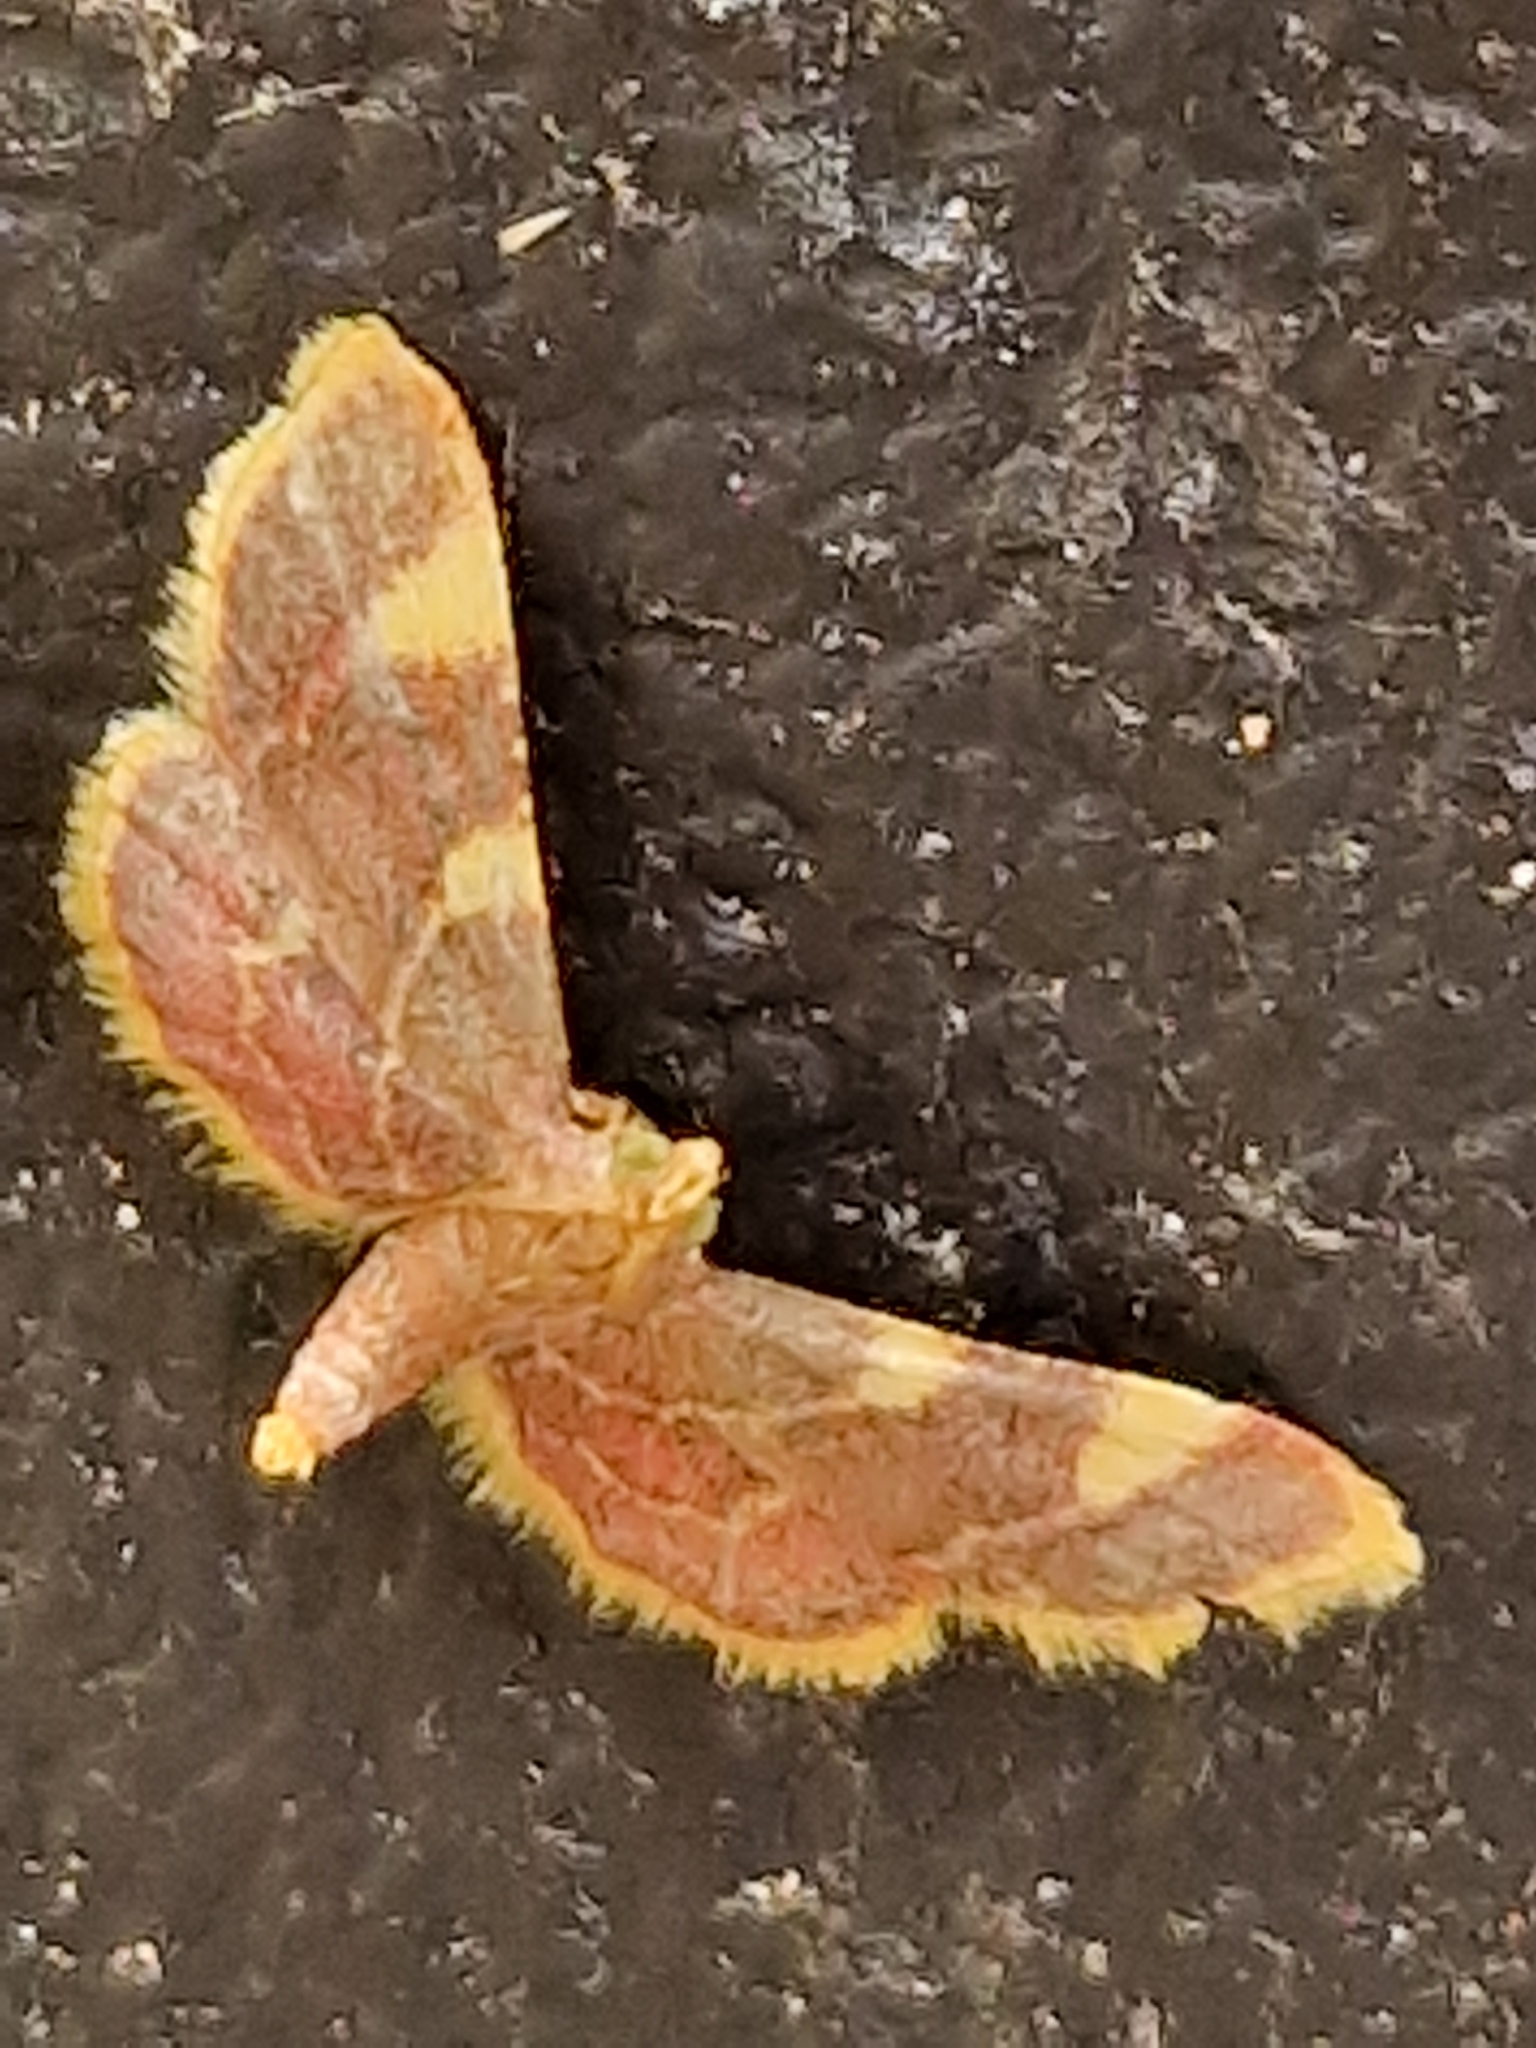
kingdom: Animalia
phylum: Arthropoda
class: Insecta
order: Lepidoptera
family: Pyralidae
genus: Hypsopygia
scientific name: Hypsopygia costalis
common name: Gold triangle
